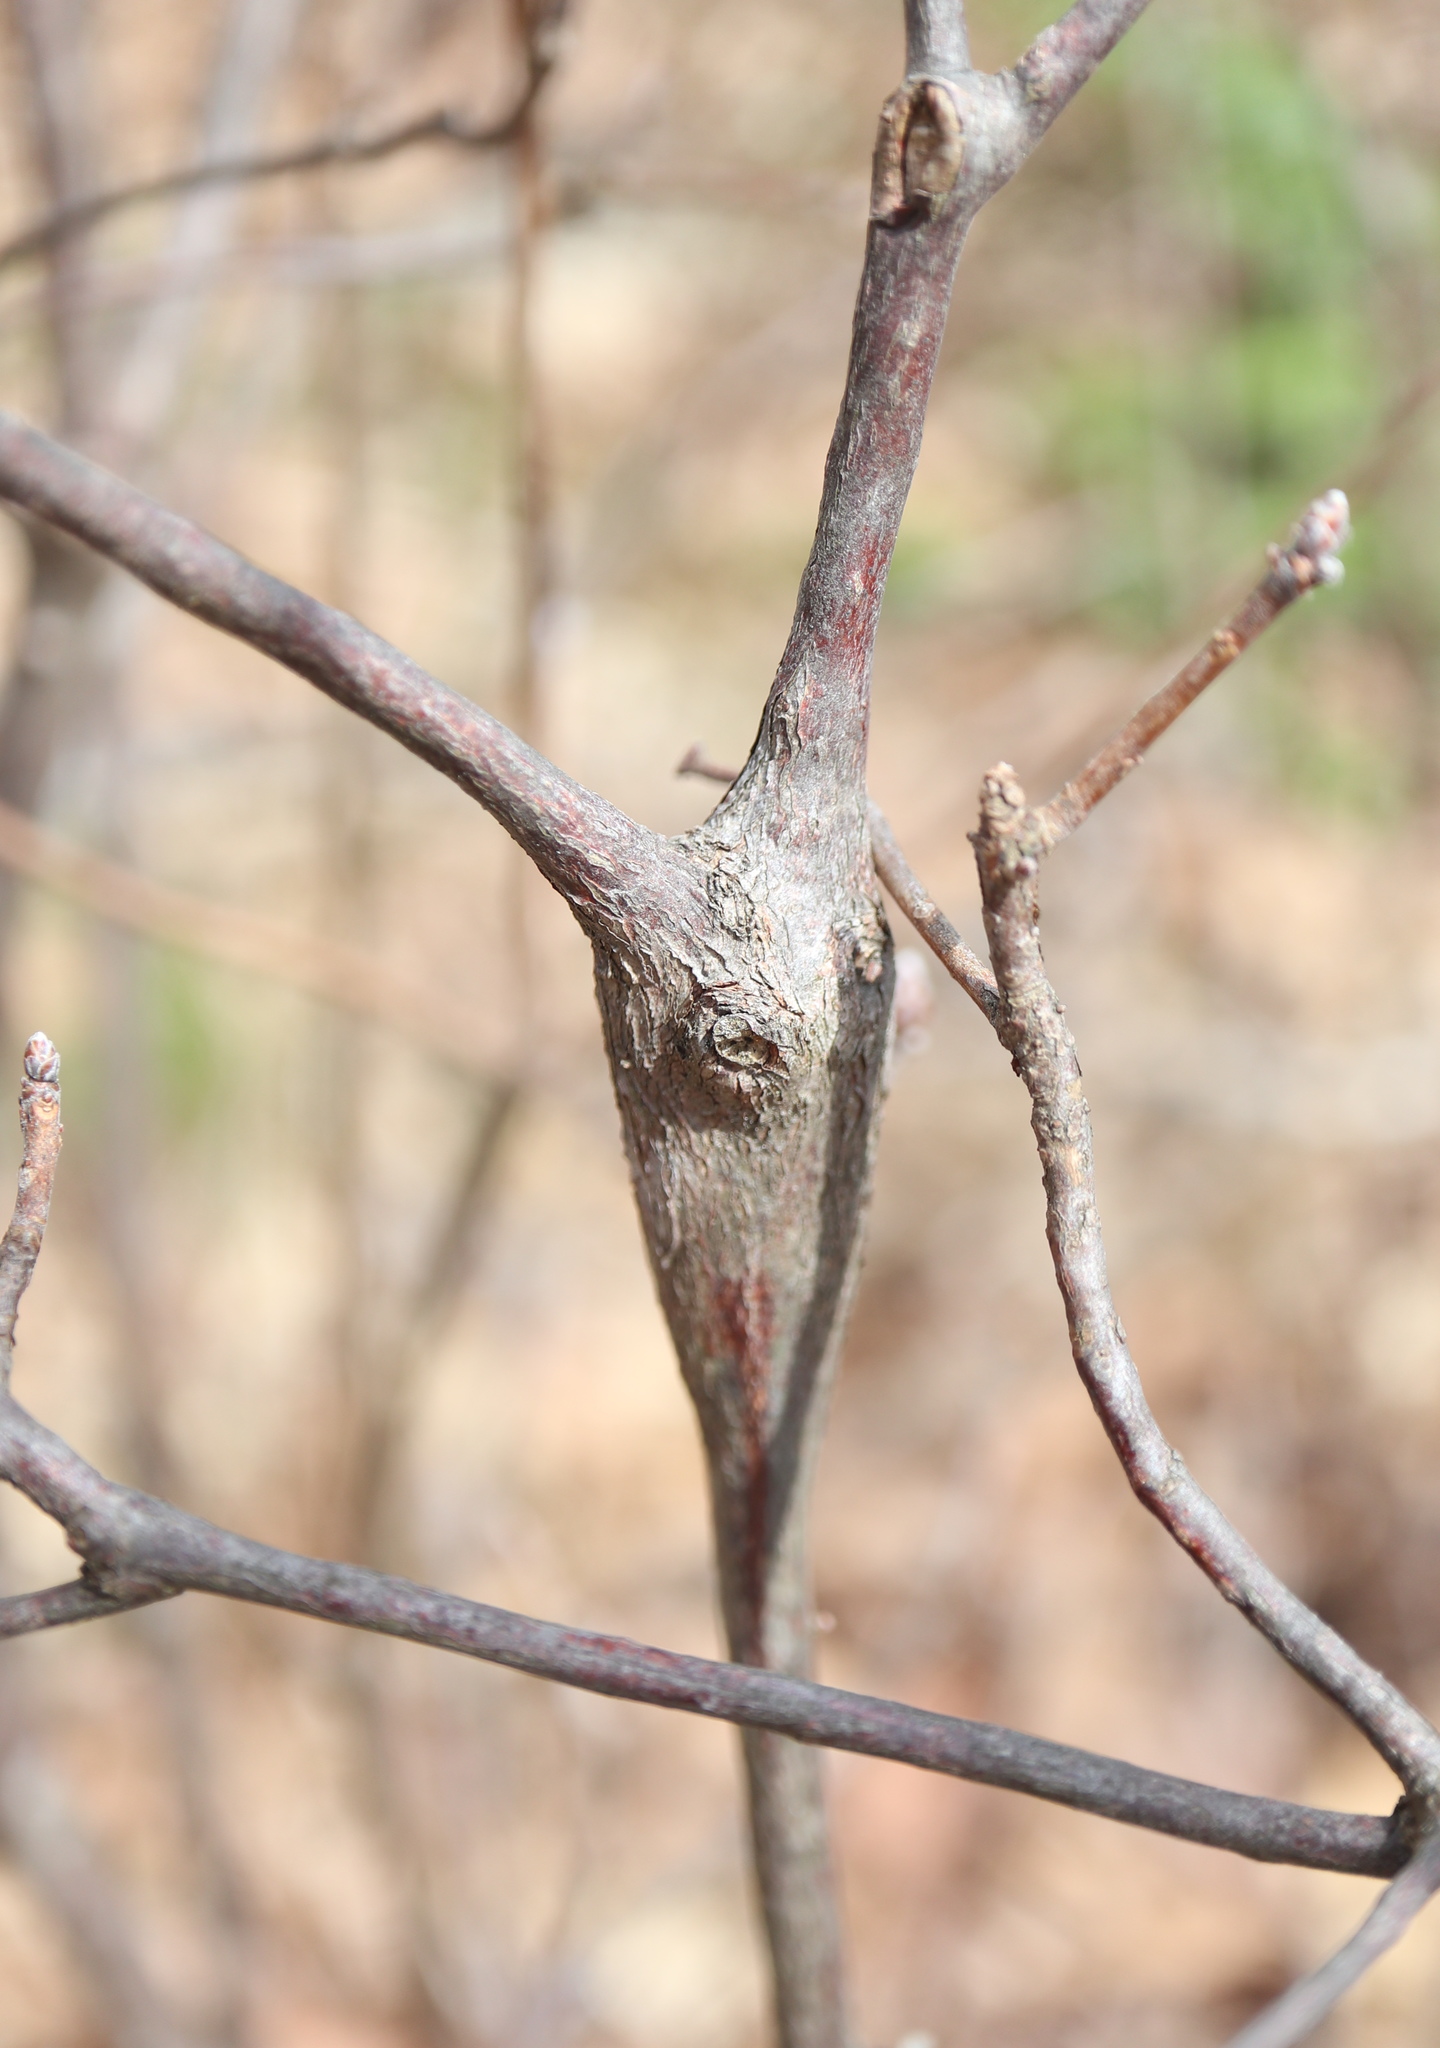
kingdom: Animalia
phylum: Arthropoda
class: Insecta
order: Hymenoptera
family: Cynipidae
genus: Zapatella
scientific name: Zapatella quercusphellos
